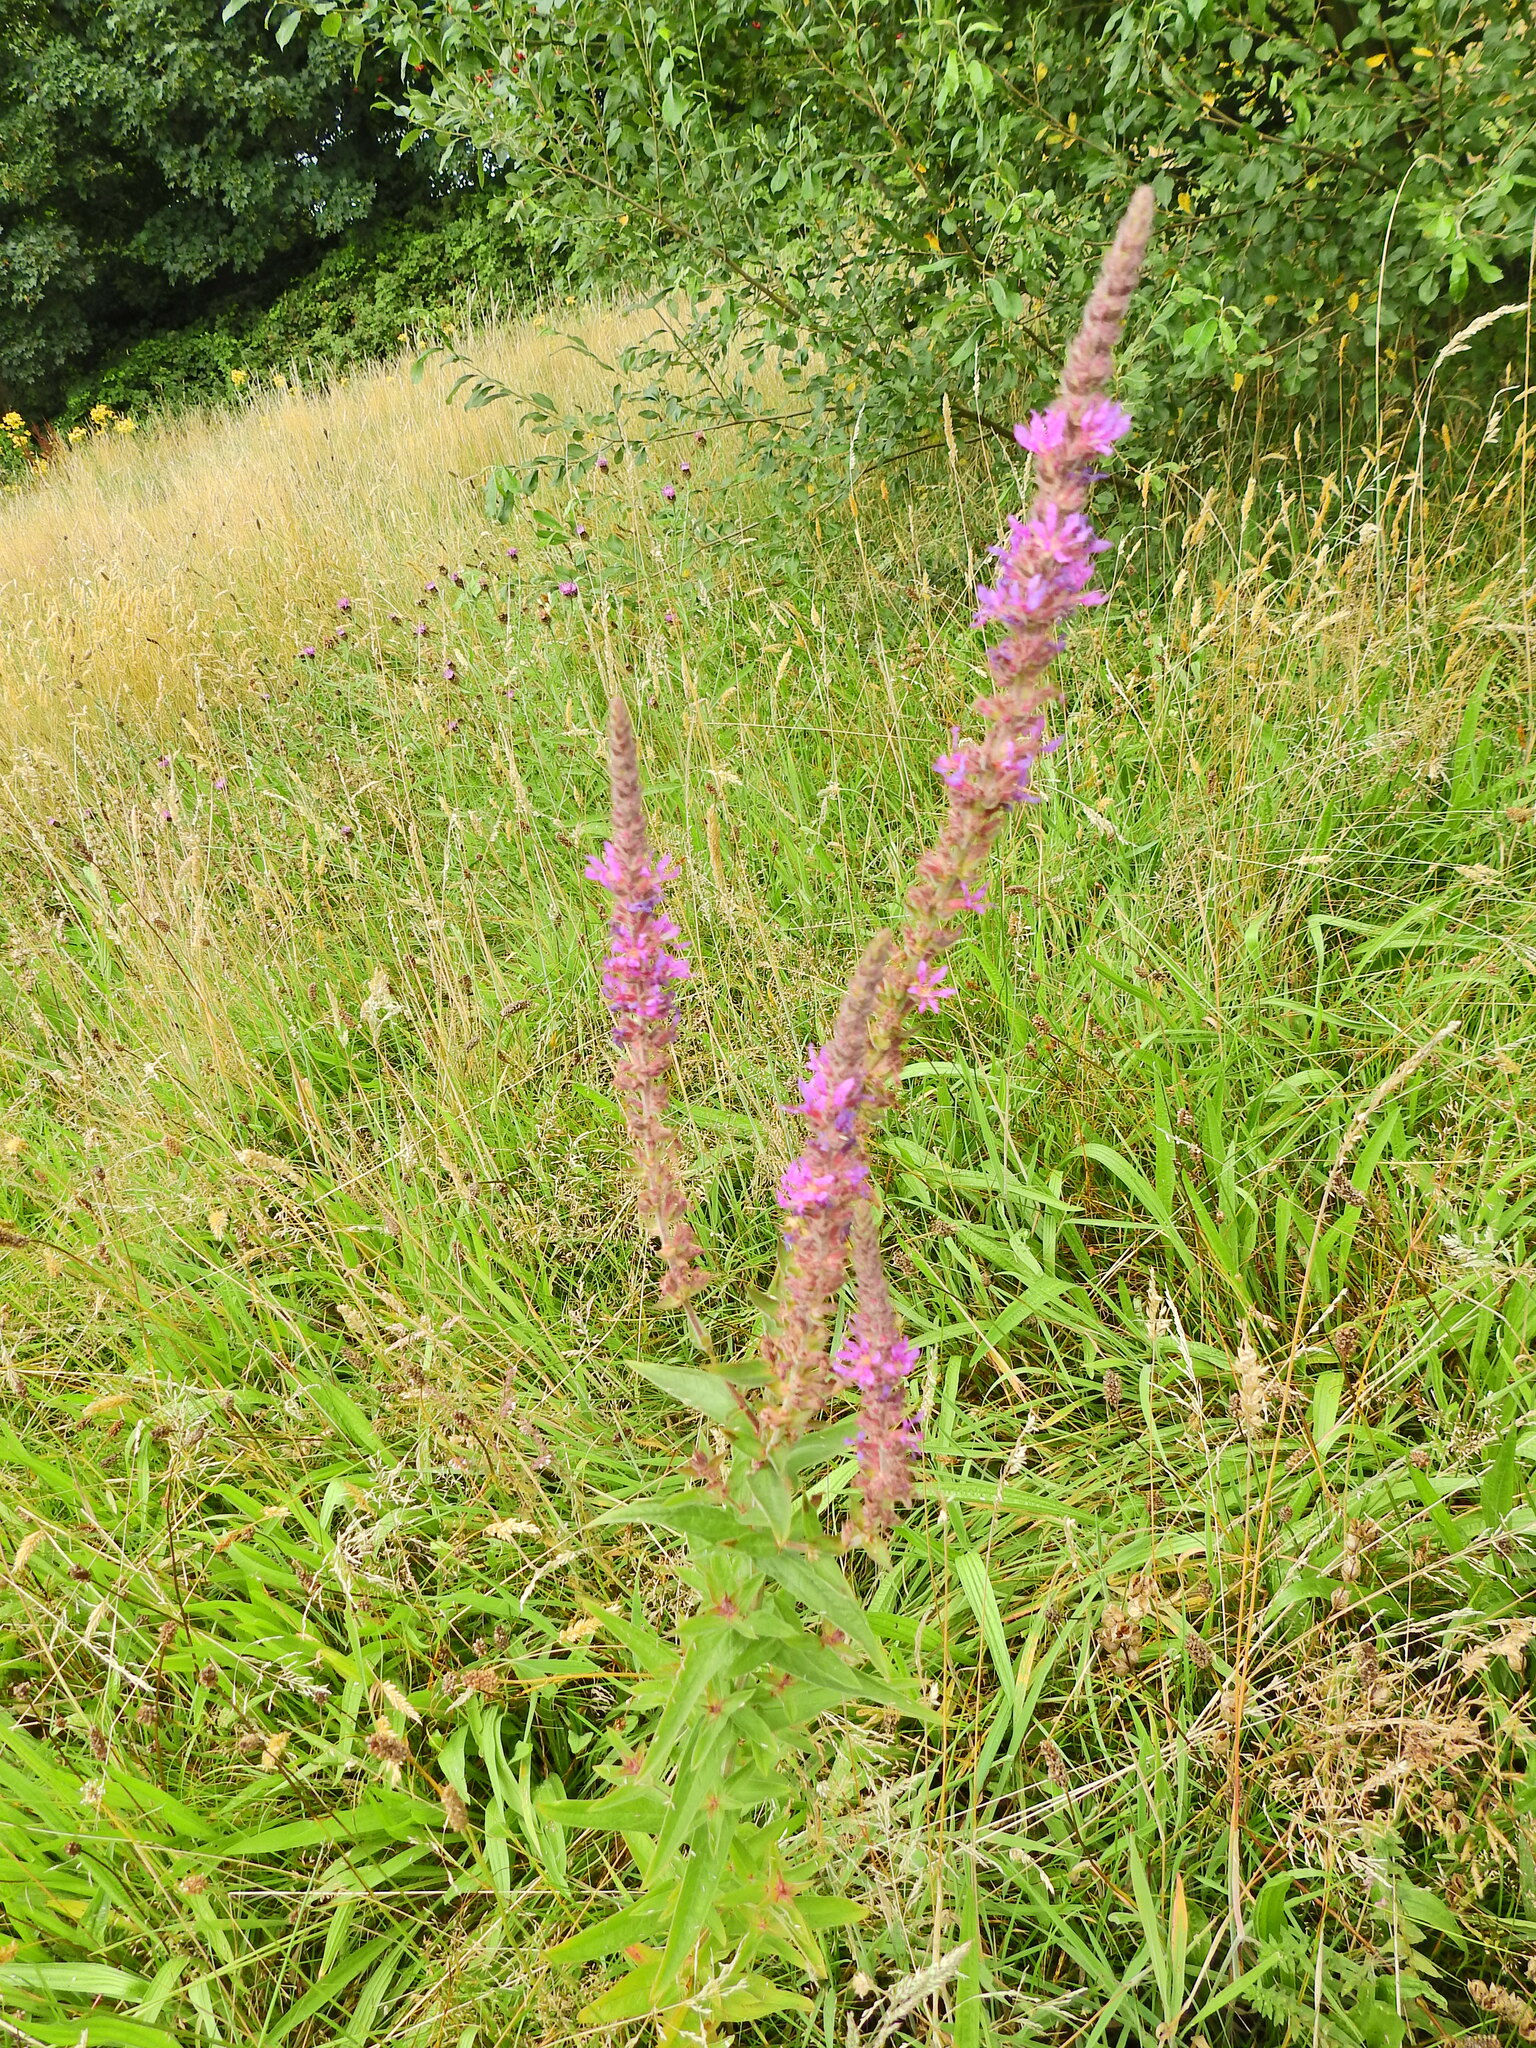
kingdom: Plantae
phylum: Tracheophyta
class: Magnoliopsida
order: Myrtales
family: Lythraceae
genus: Lythrum
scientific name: Lythrum salicaria
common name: Purple loosestrife
